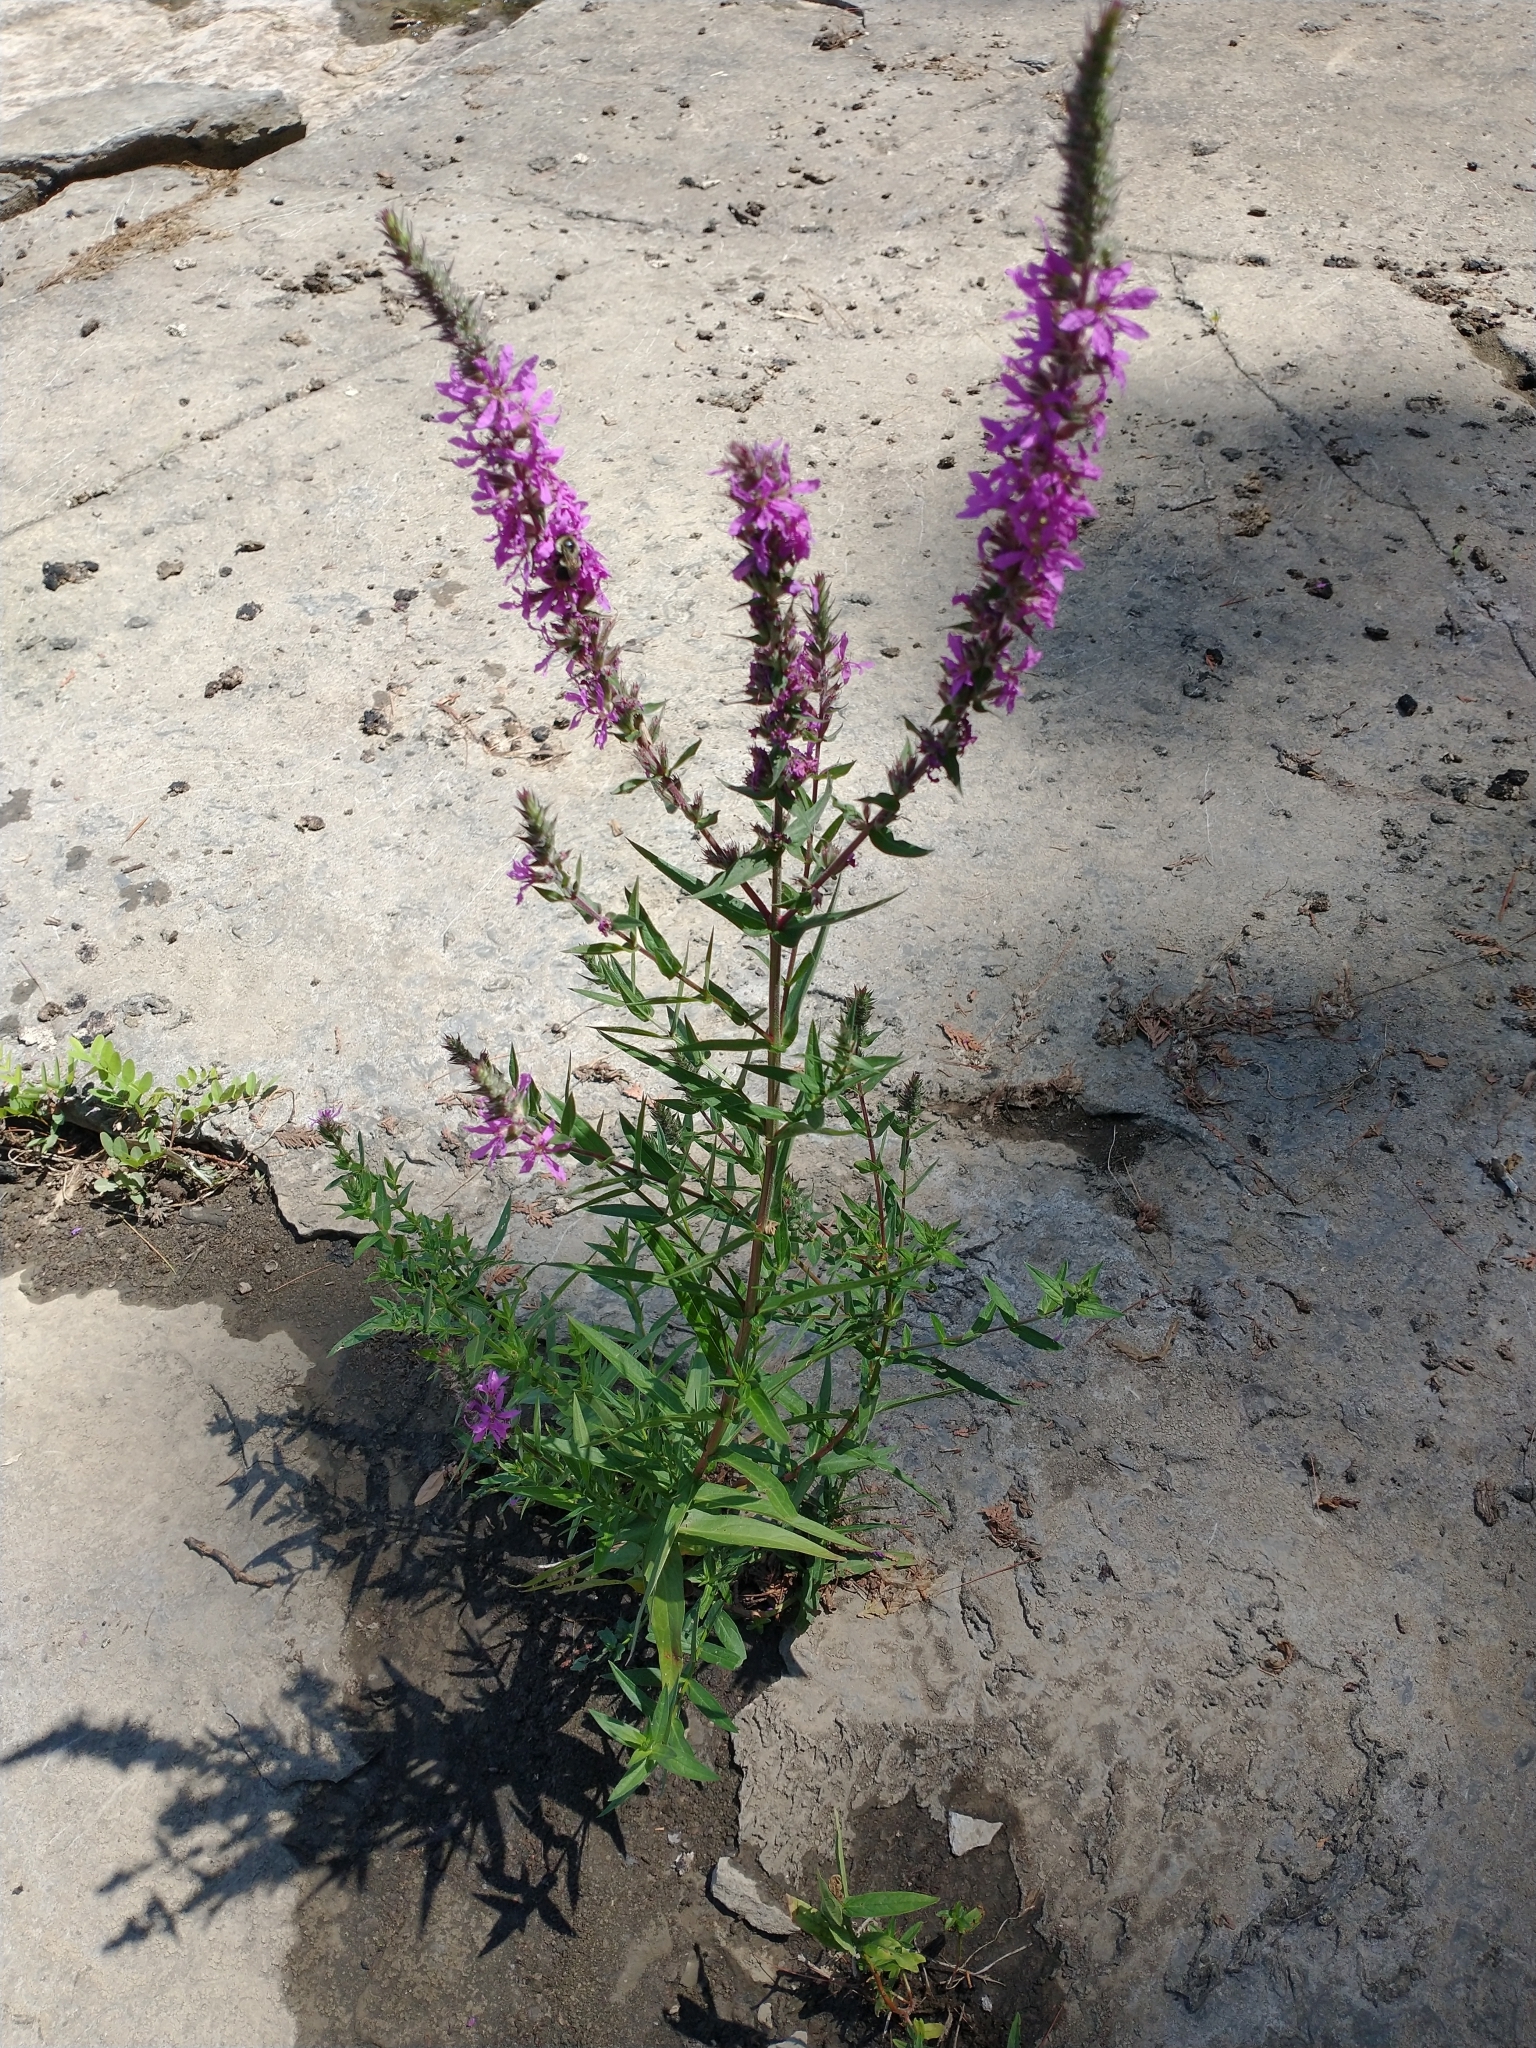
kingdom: Plantae
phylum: Tracheophyta
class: Magnoliopsida
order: Myrtales
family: Lythraceae
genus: Lythrum
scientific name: Lythrum salicaria
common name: Purple loosestrife
